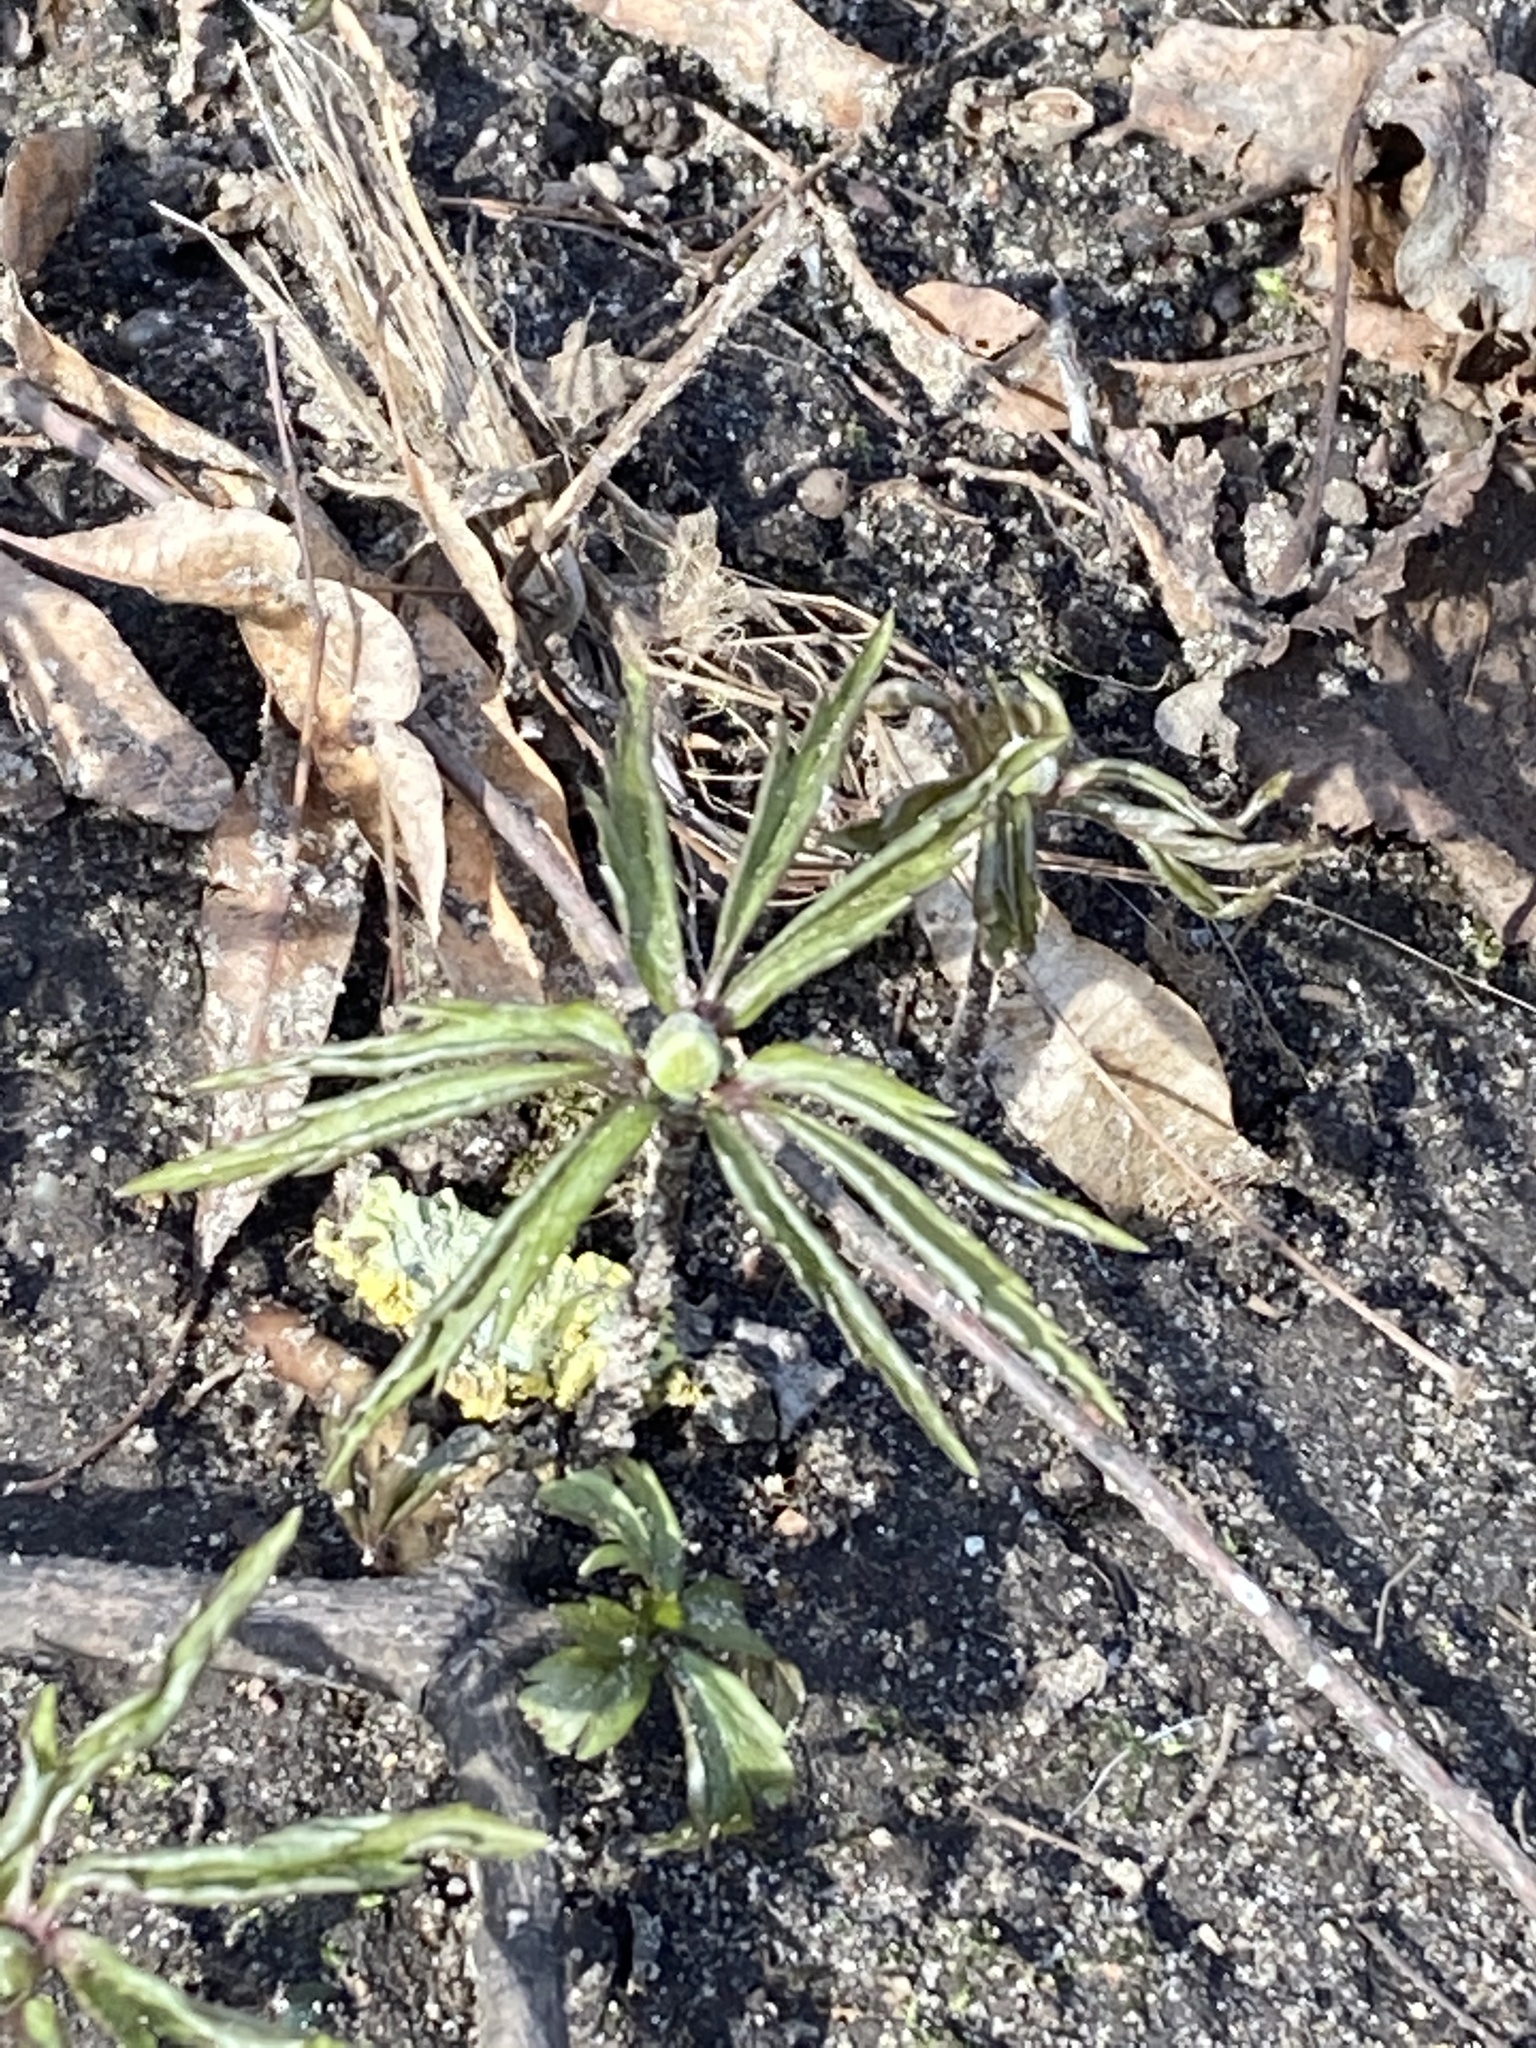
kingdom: Plantae
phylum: Tracheophyta
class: Magnoliopsida
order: Ranunculales
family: Ranunculaceae
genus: Anemone
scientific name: Anemone ranunculoides
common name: Yellow anemone
